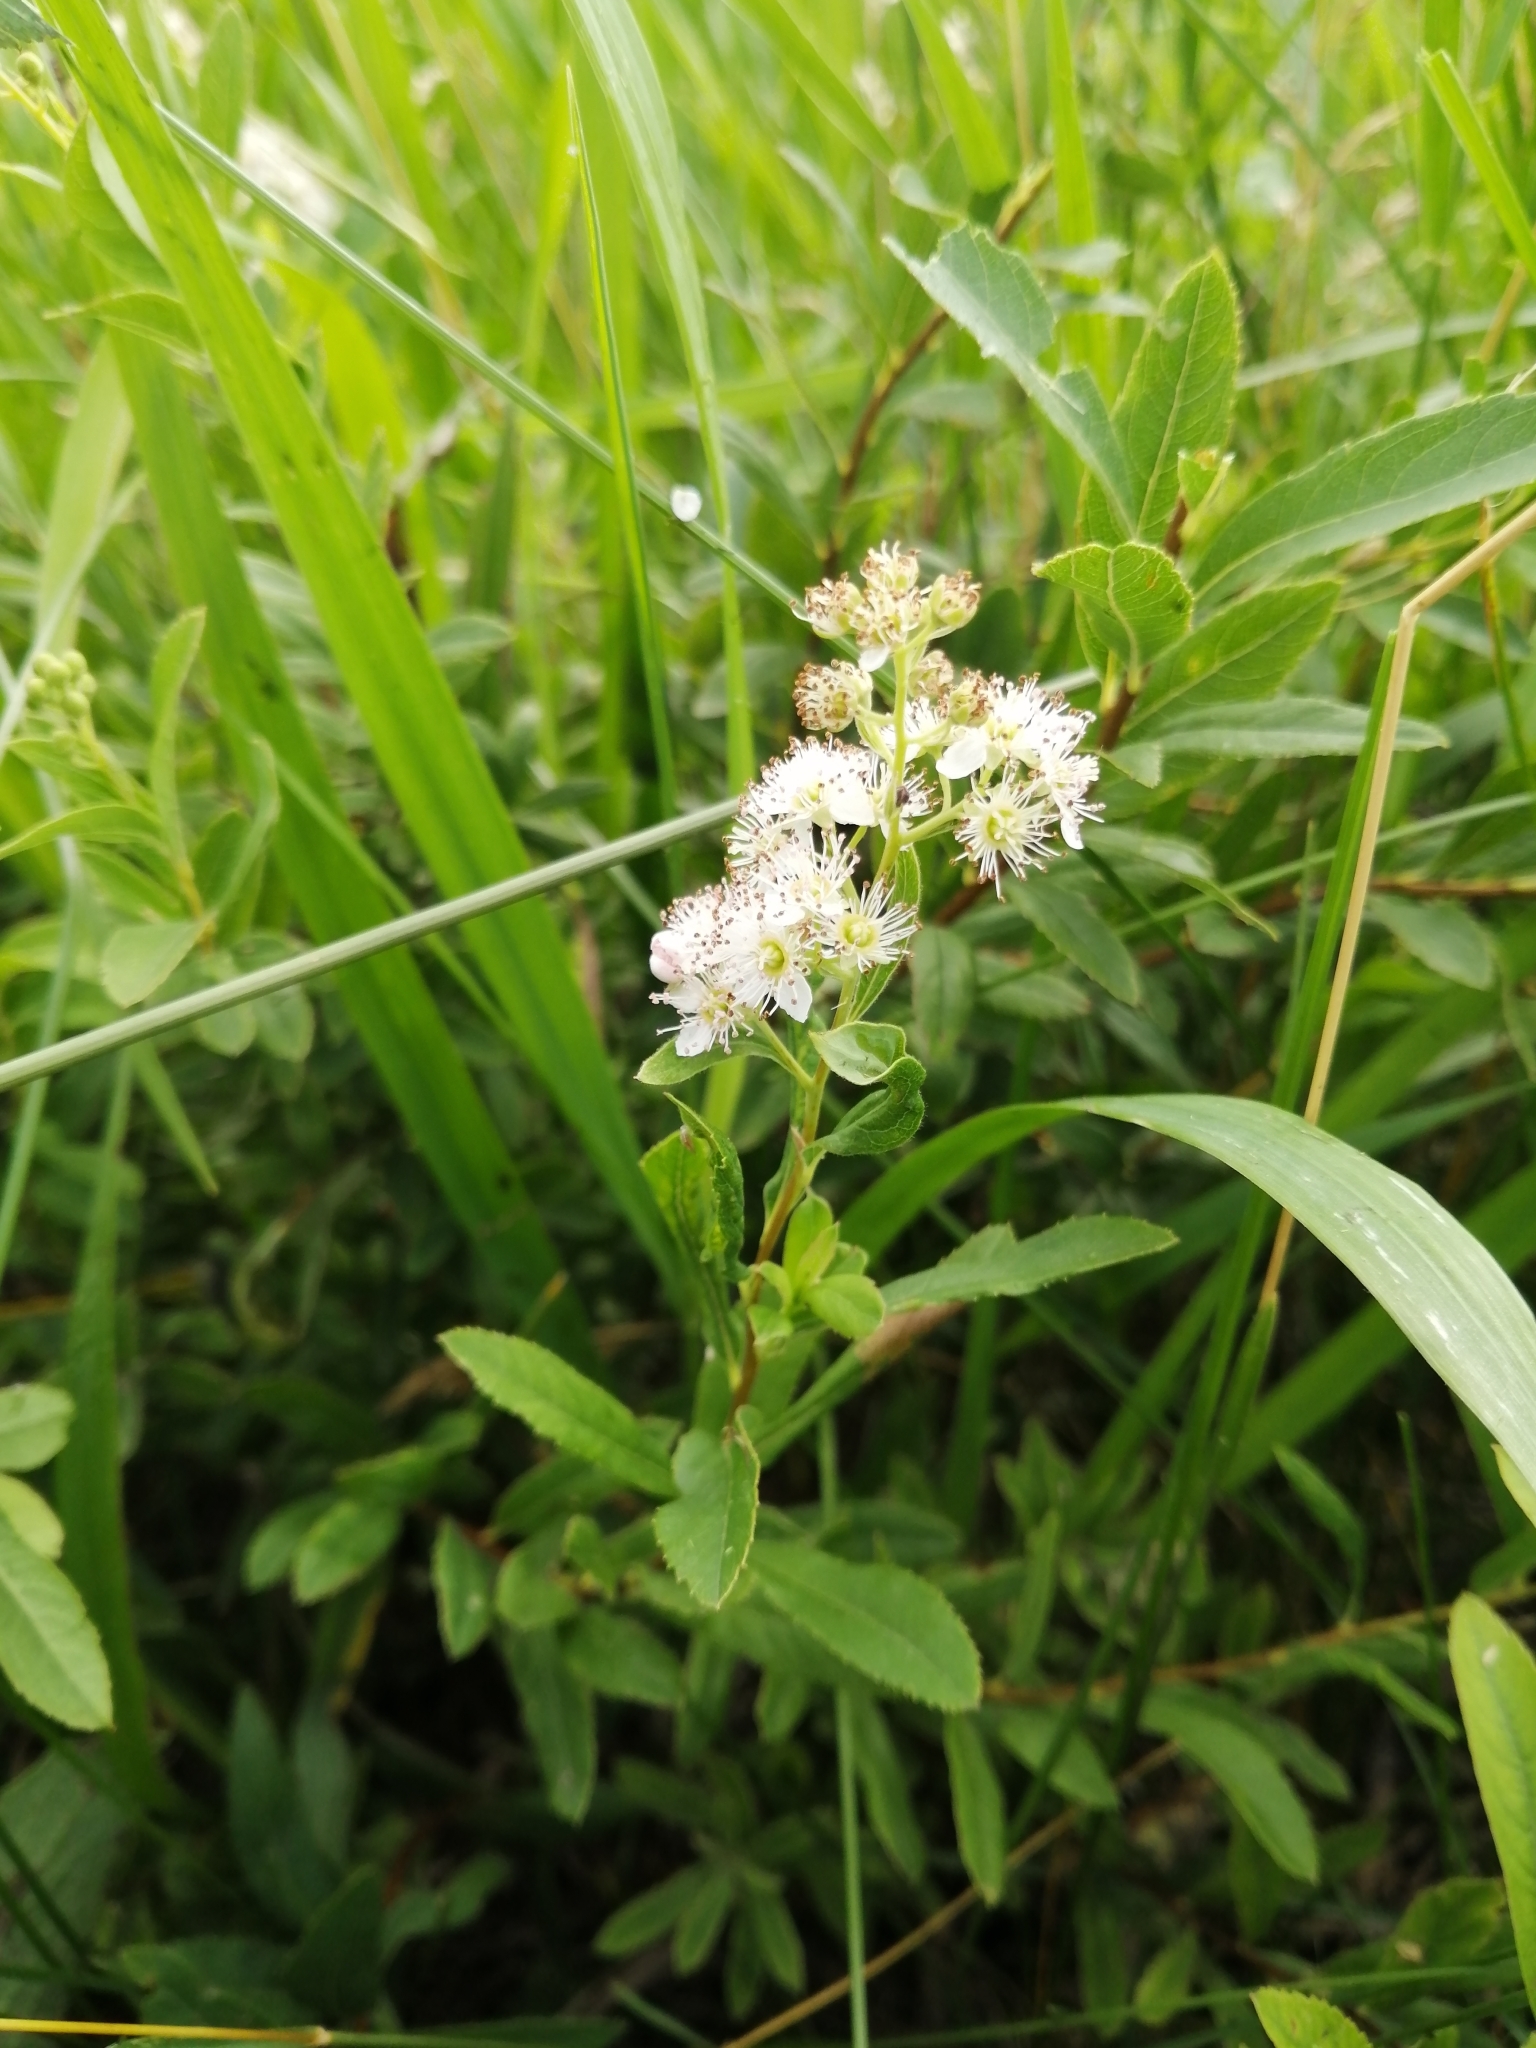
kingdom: Plantae
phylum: Tracheophyta
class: Magnoliopsida
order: Rosales
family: Rosaceae
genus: Spiraea
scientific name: Spiraea alba
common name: Pale bridewort
